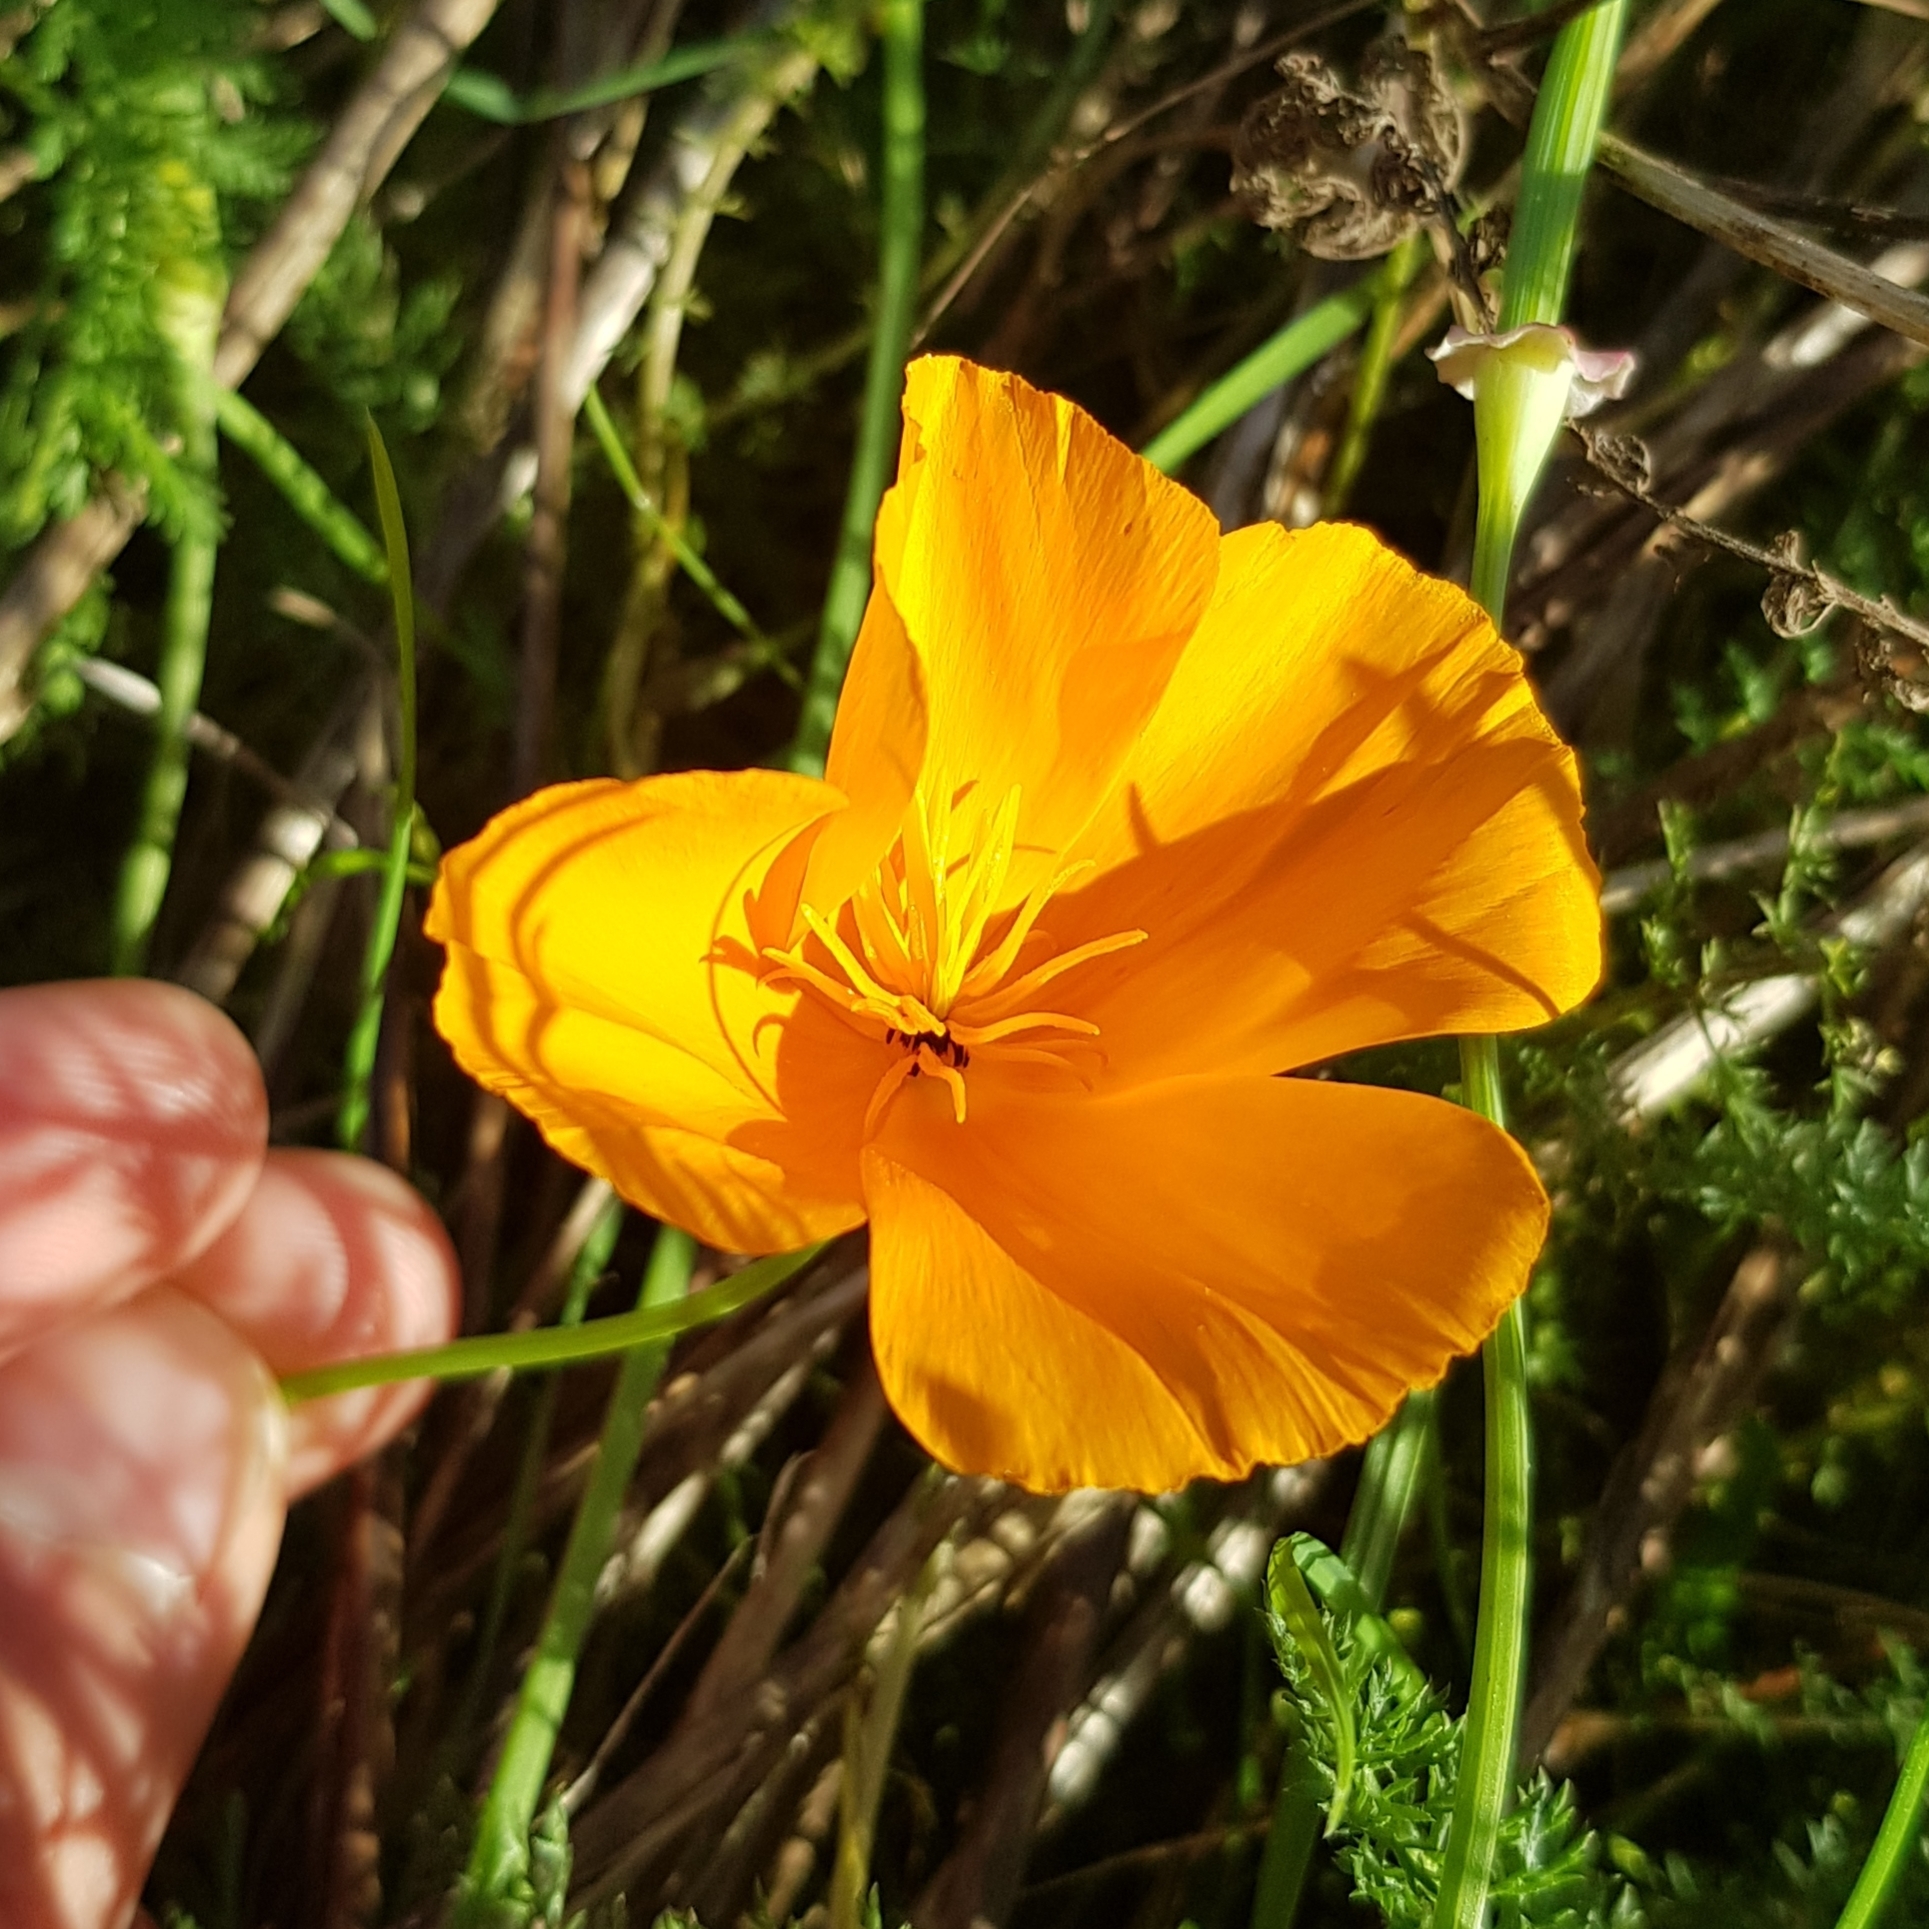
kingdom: Plantae
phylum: Tracheophyta
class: Magnoliopsida
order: Ranunculales
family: Papaveraceae
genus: Eschscholzia
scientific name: Eschscholzia californica
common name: California poppy
